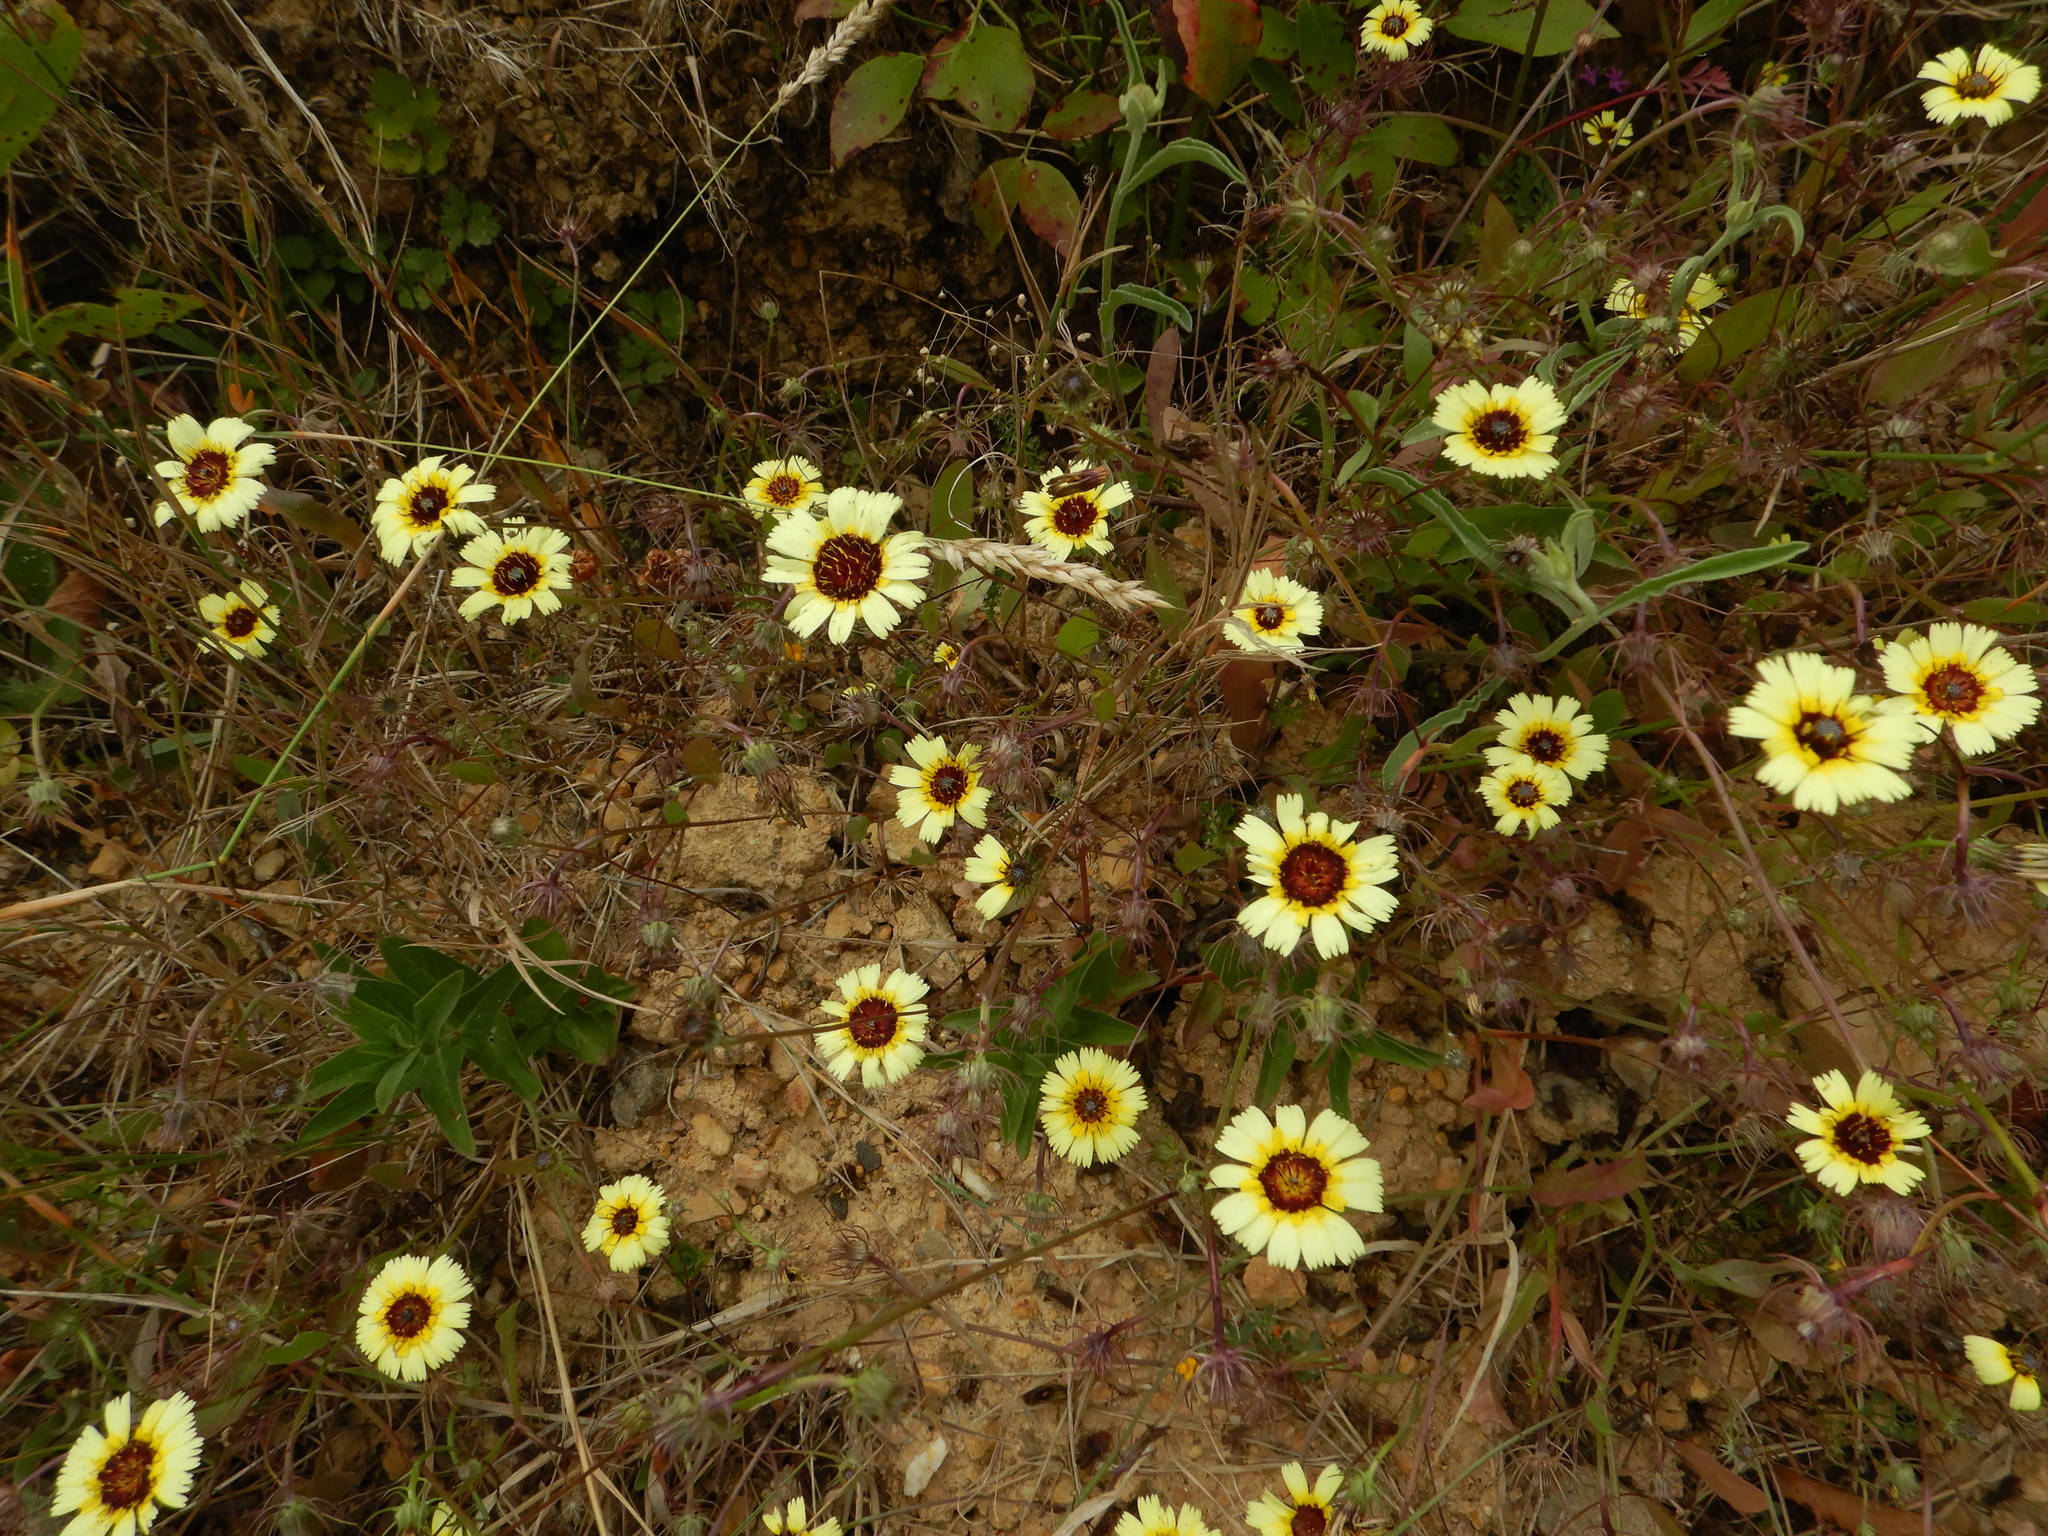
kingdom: Plantae
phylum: Tracheophyta
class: Magnoliopsida
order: Asterales
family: Asteraceae
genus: Tolpis
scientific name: Tolpis barbata
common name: Yellow hawkweed
